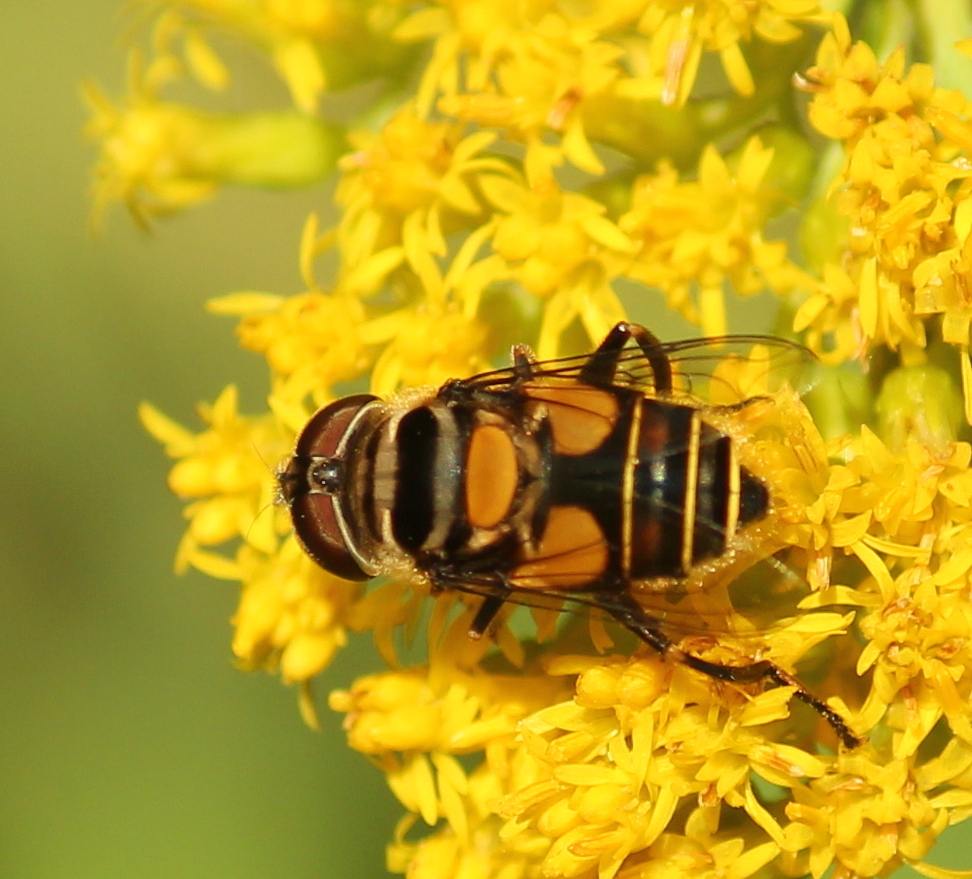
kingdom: Animalia
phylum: Arthropoda
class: Insecta
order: Diptera
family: Syrphidae
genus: Palpada
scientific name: Palpada agrorum
